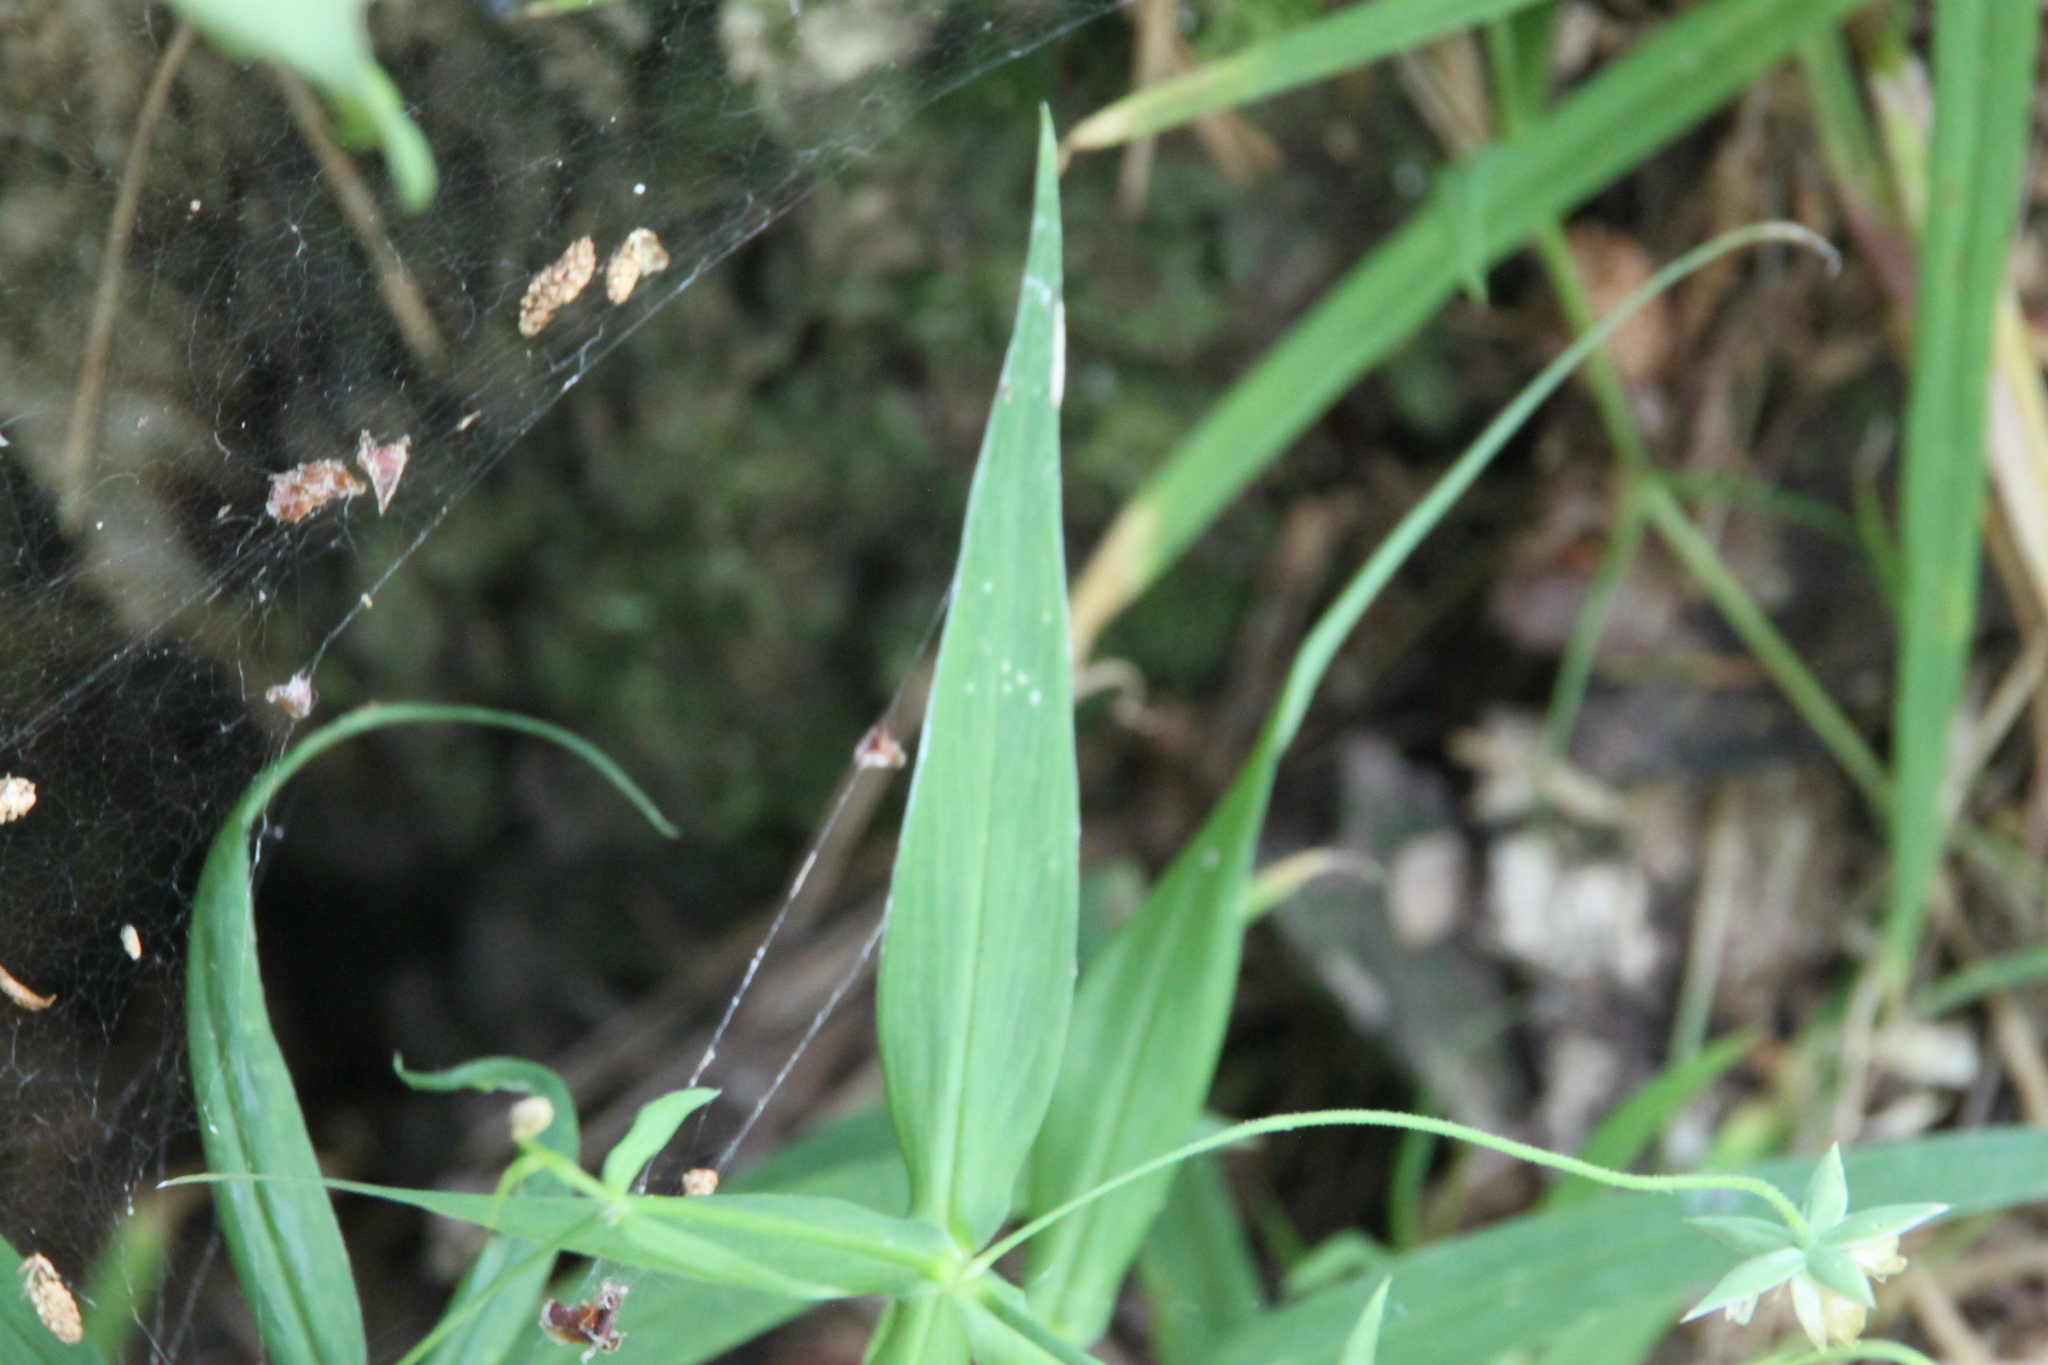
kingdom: Plantae
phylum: Tracheophyta
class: Magnoliopsida
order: Caryophyllales
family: Caryophyllaceae
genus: Rabelera
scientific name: Rabelera holostea
